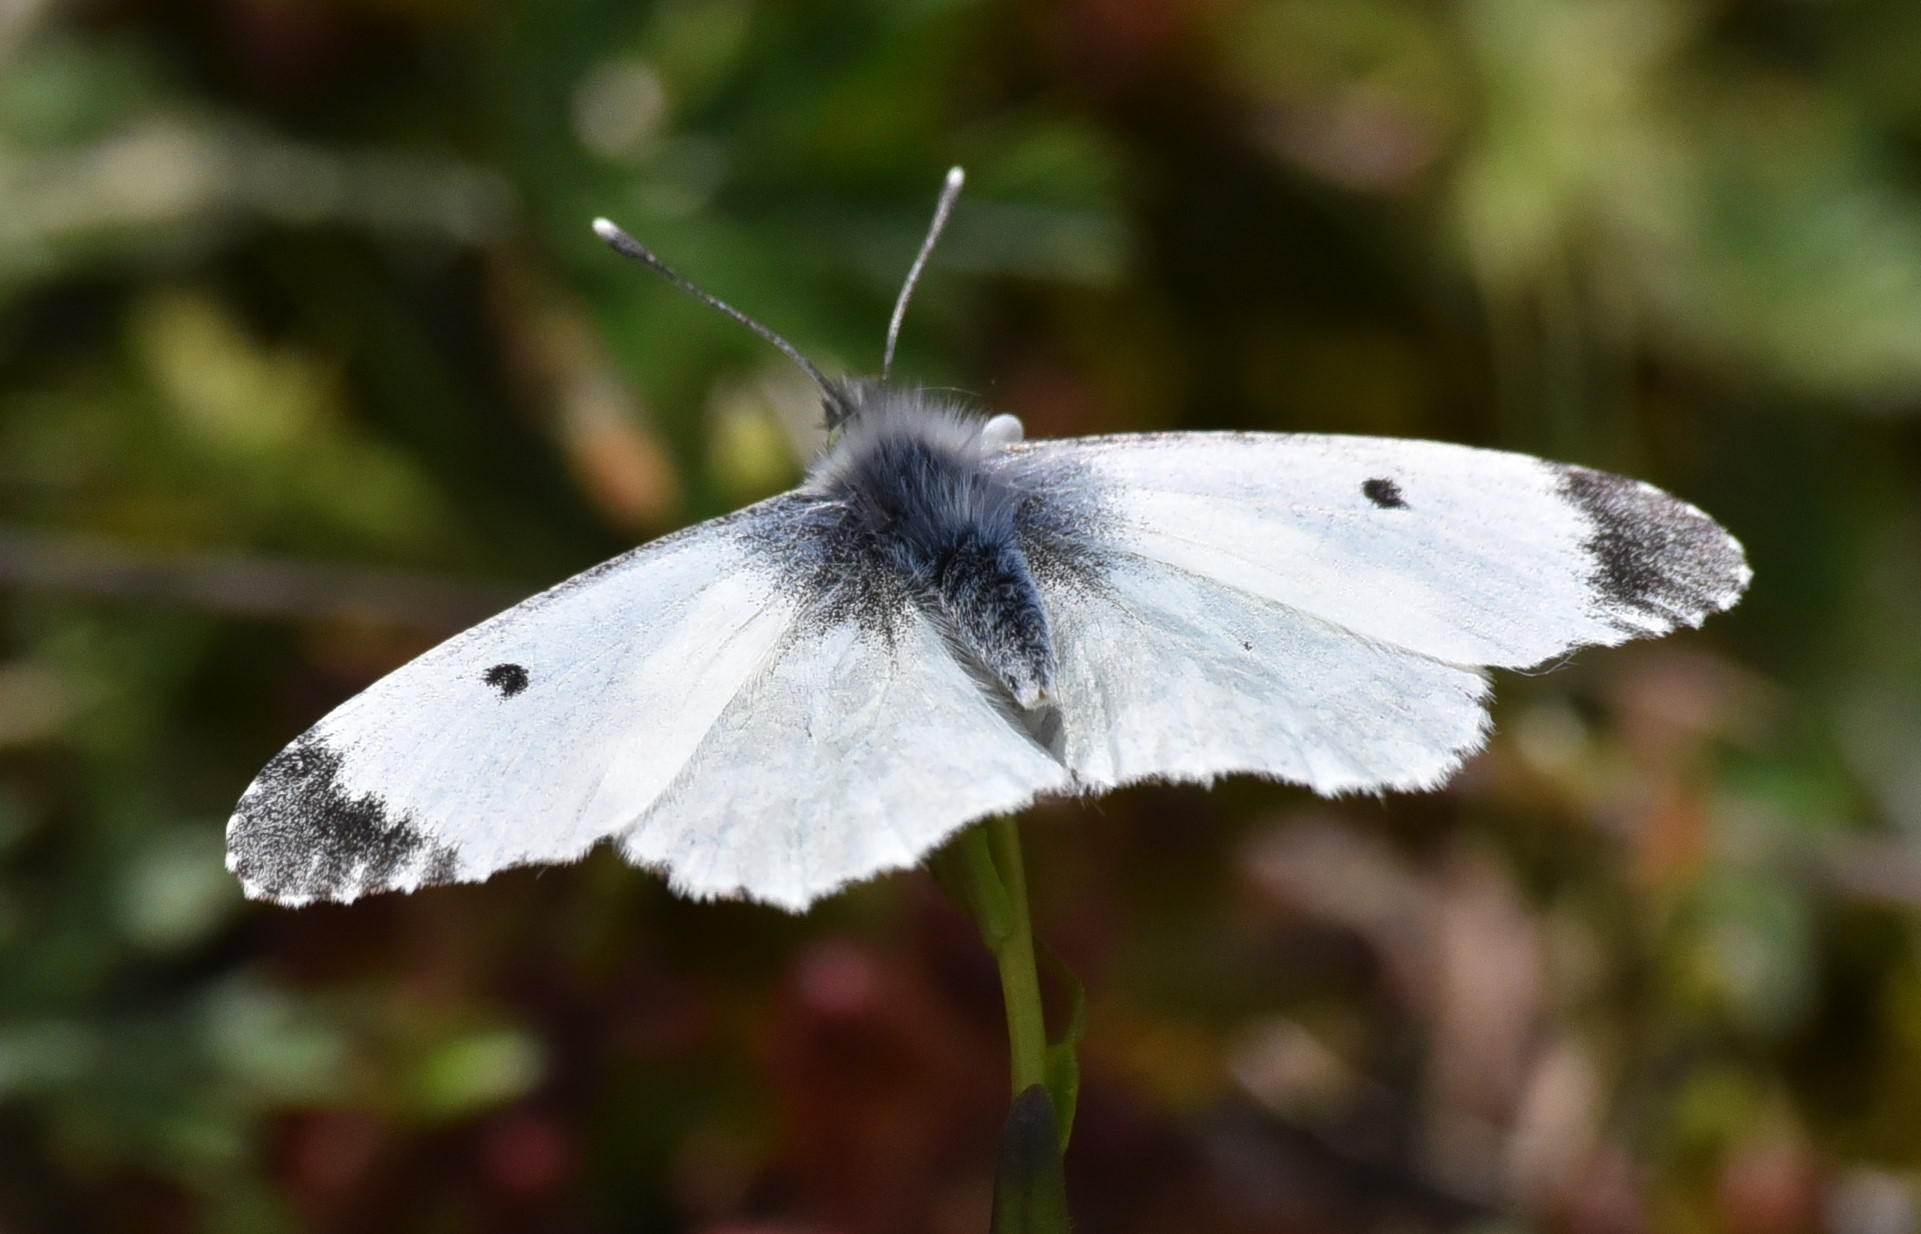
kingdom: Animalia
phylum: Arthropoda
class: Insecta
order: Lepidoptera
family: Pieridae
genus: Anthocharis
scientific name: Anthocharis cardamines
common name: Orange-tip
